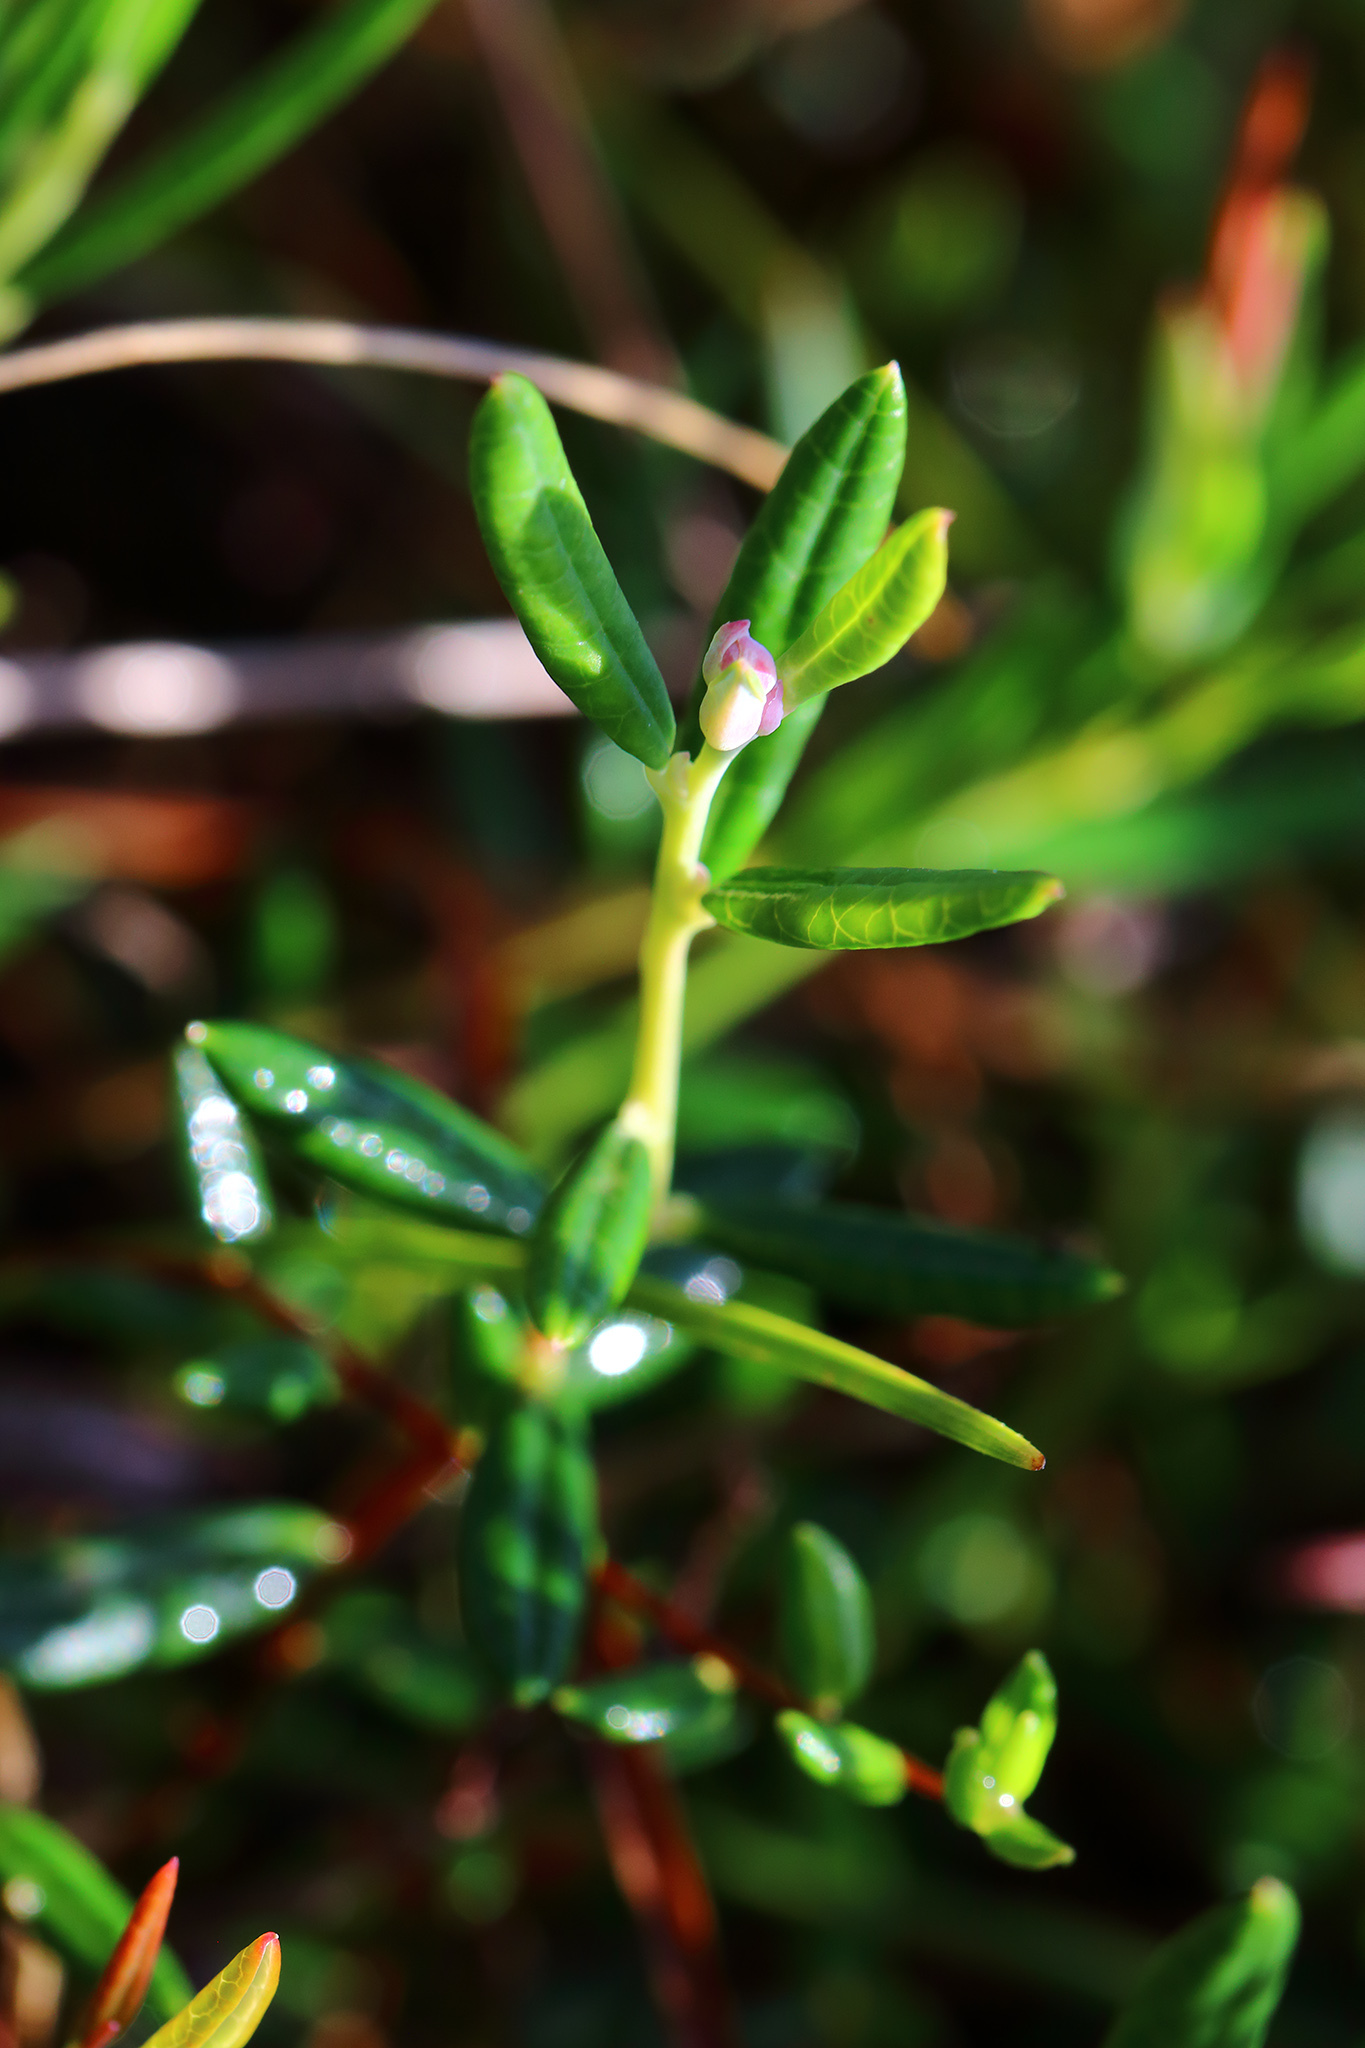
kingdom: Plantae
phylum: Tracheophyta
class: Magnoliopsida
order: Ericales
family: Ericaceae
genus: Andromeda
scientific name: Andromeda polifolia
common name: Bog-rosemary
